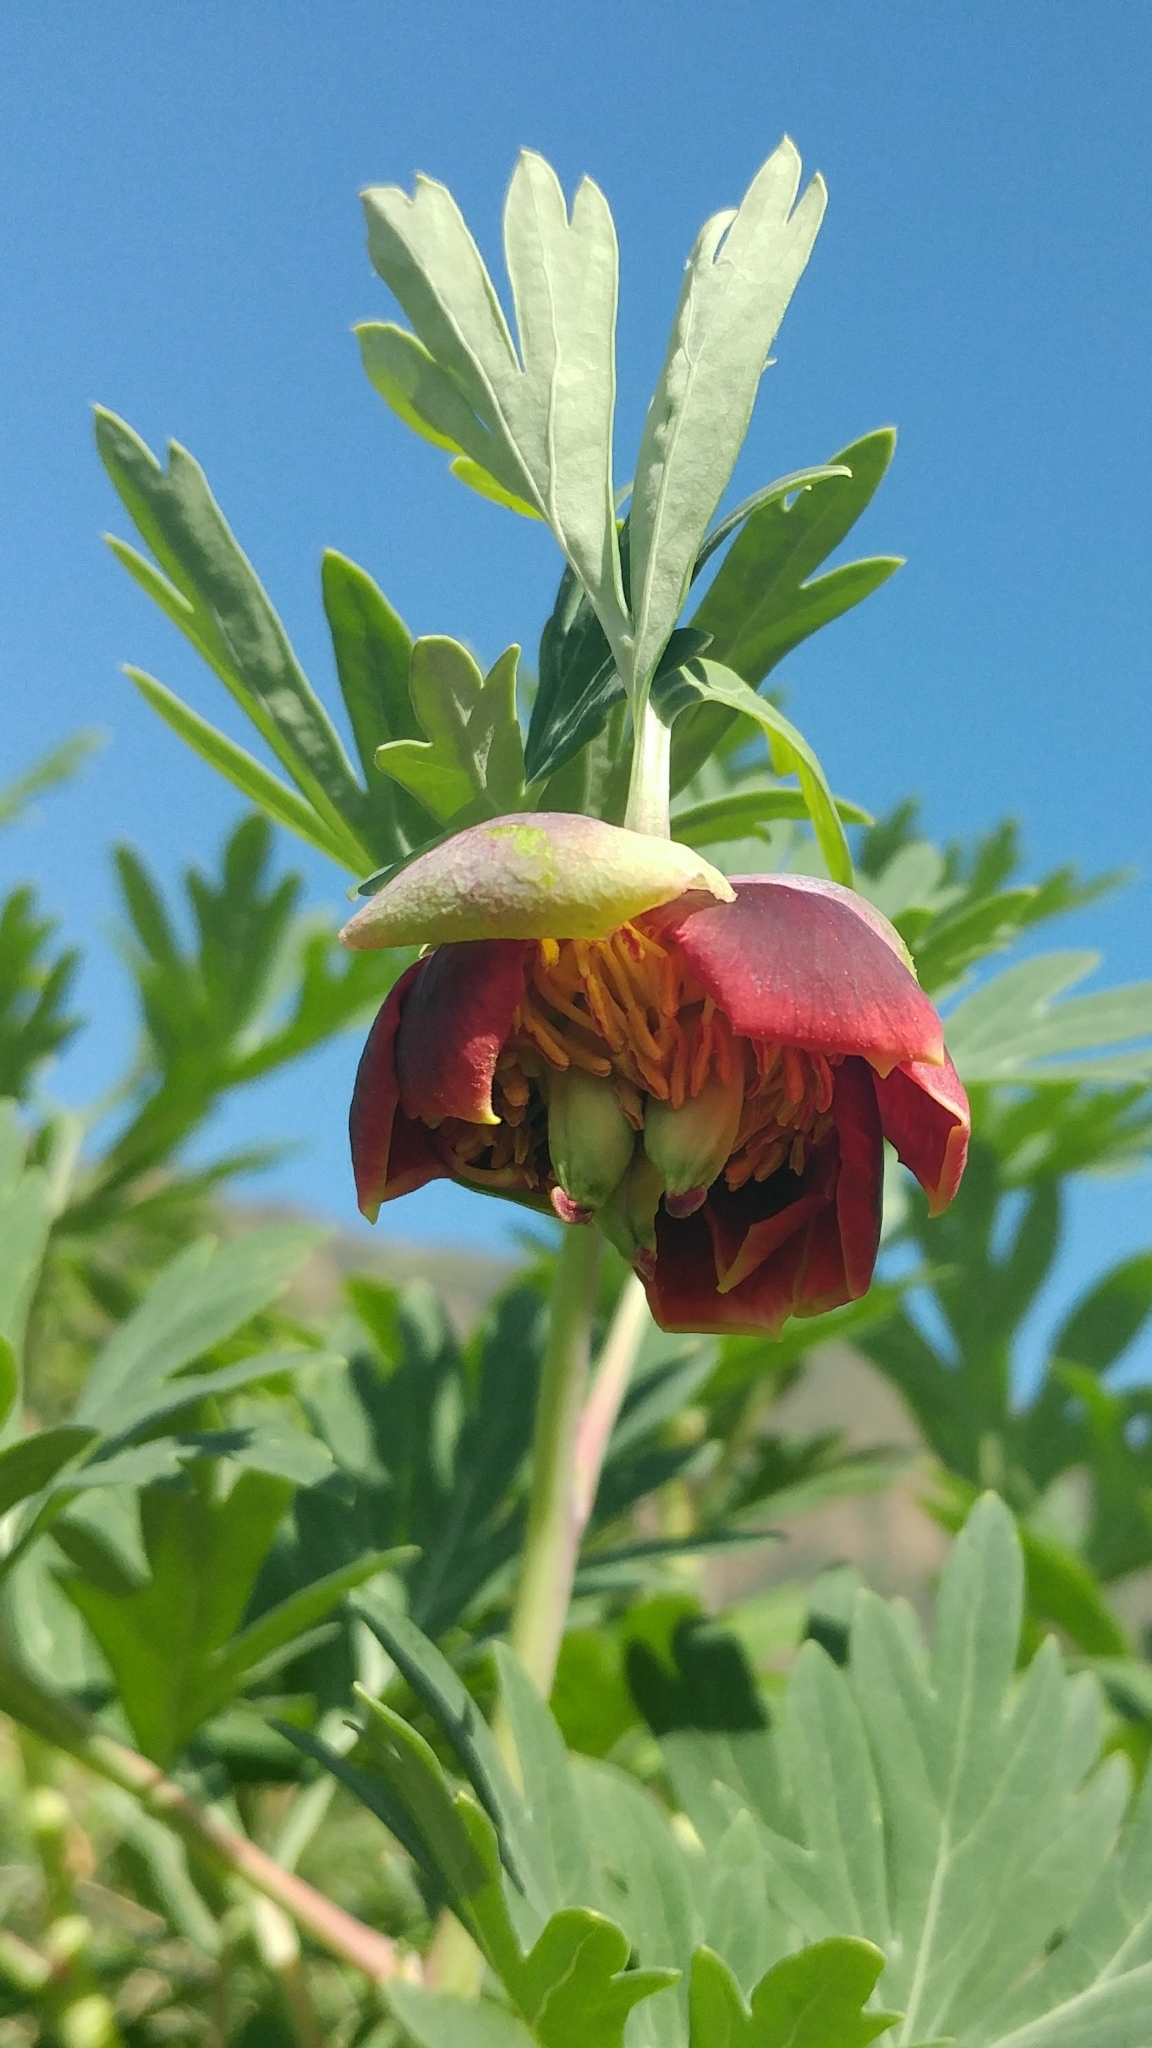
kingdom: Plantae
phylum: Tracheophyta
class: Magnoliopsida
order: Saxifragales
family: Paeoniaceae
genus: Paeonia
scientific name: Paeonia californica
